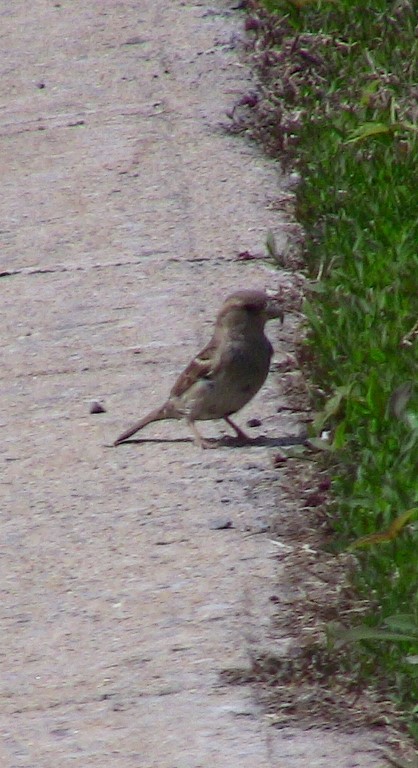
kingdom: Animalia
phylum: Chordata
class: Aves
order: Passeriformes
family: Passeridae
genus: Passer
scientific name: Passer domesticus
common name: House sparrow
